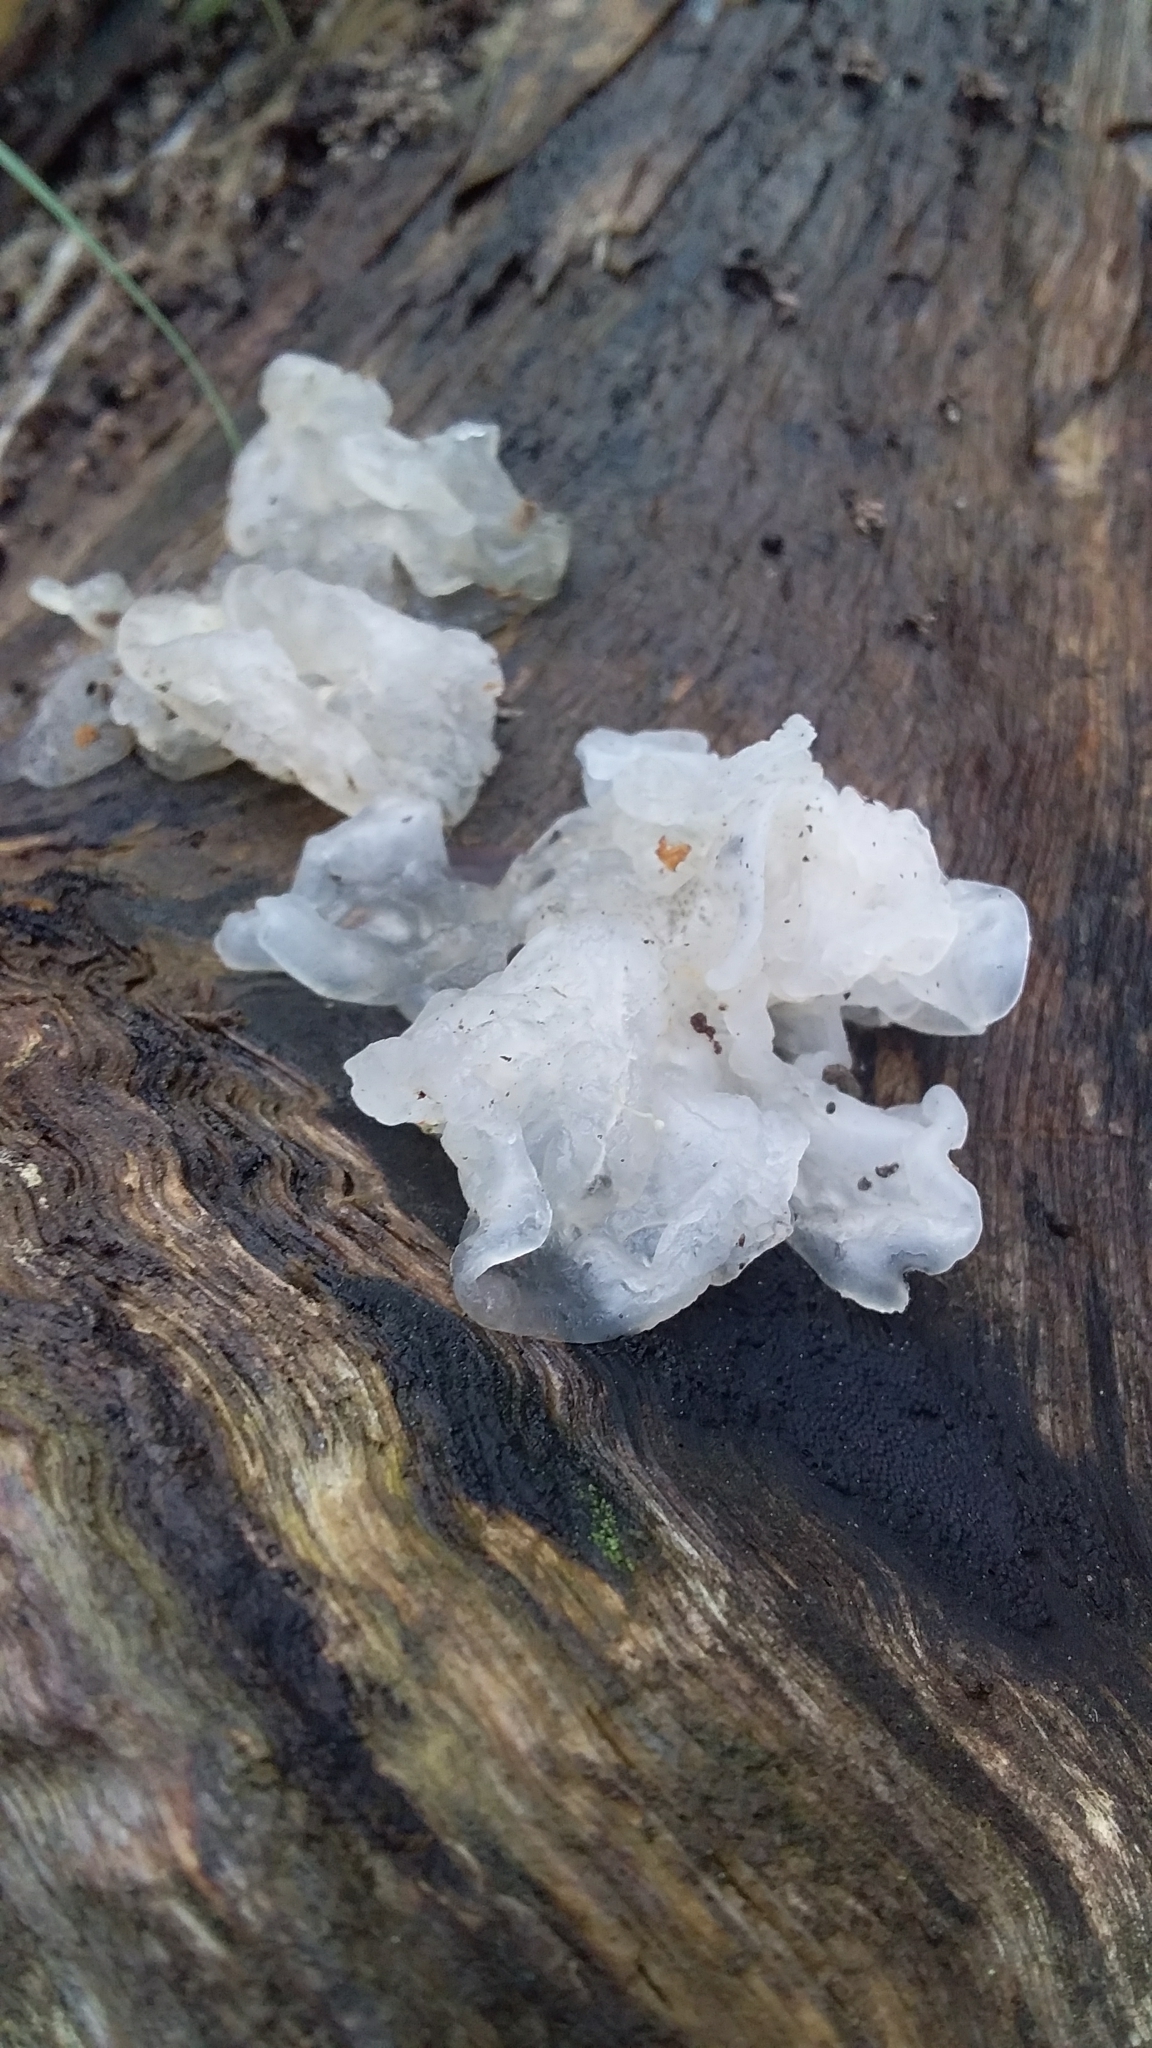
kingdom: Fungi
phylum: Basidiomycota
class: Tremellomycetes
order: Tremellales
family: Tremellaceae
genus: Tremella
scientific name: Tremella fuciformis
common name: Snow fungus
